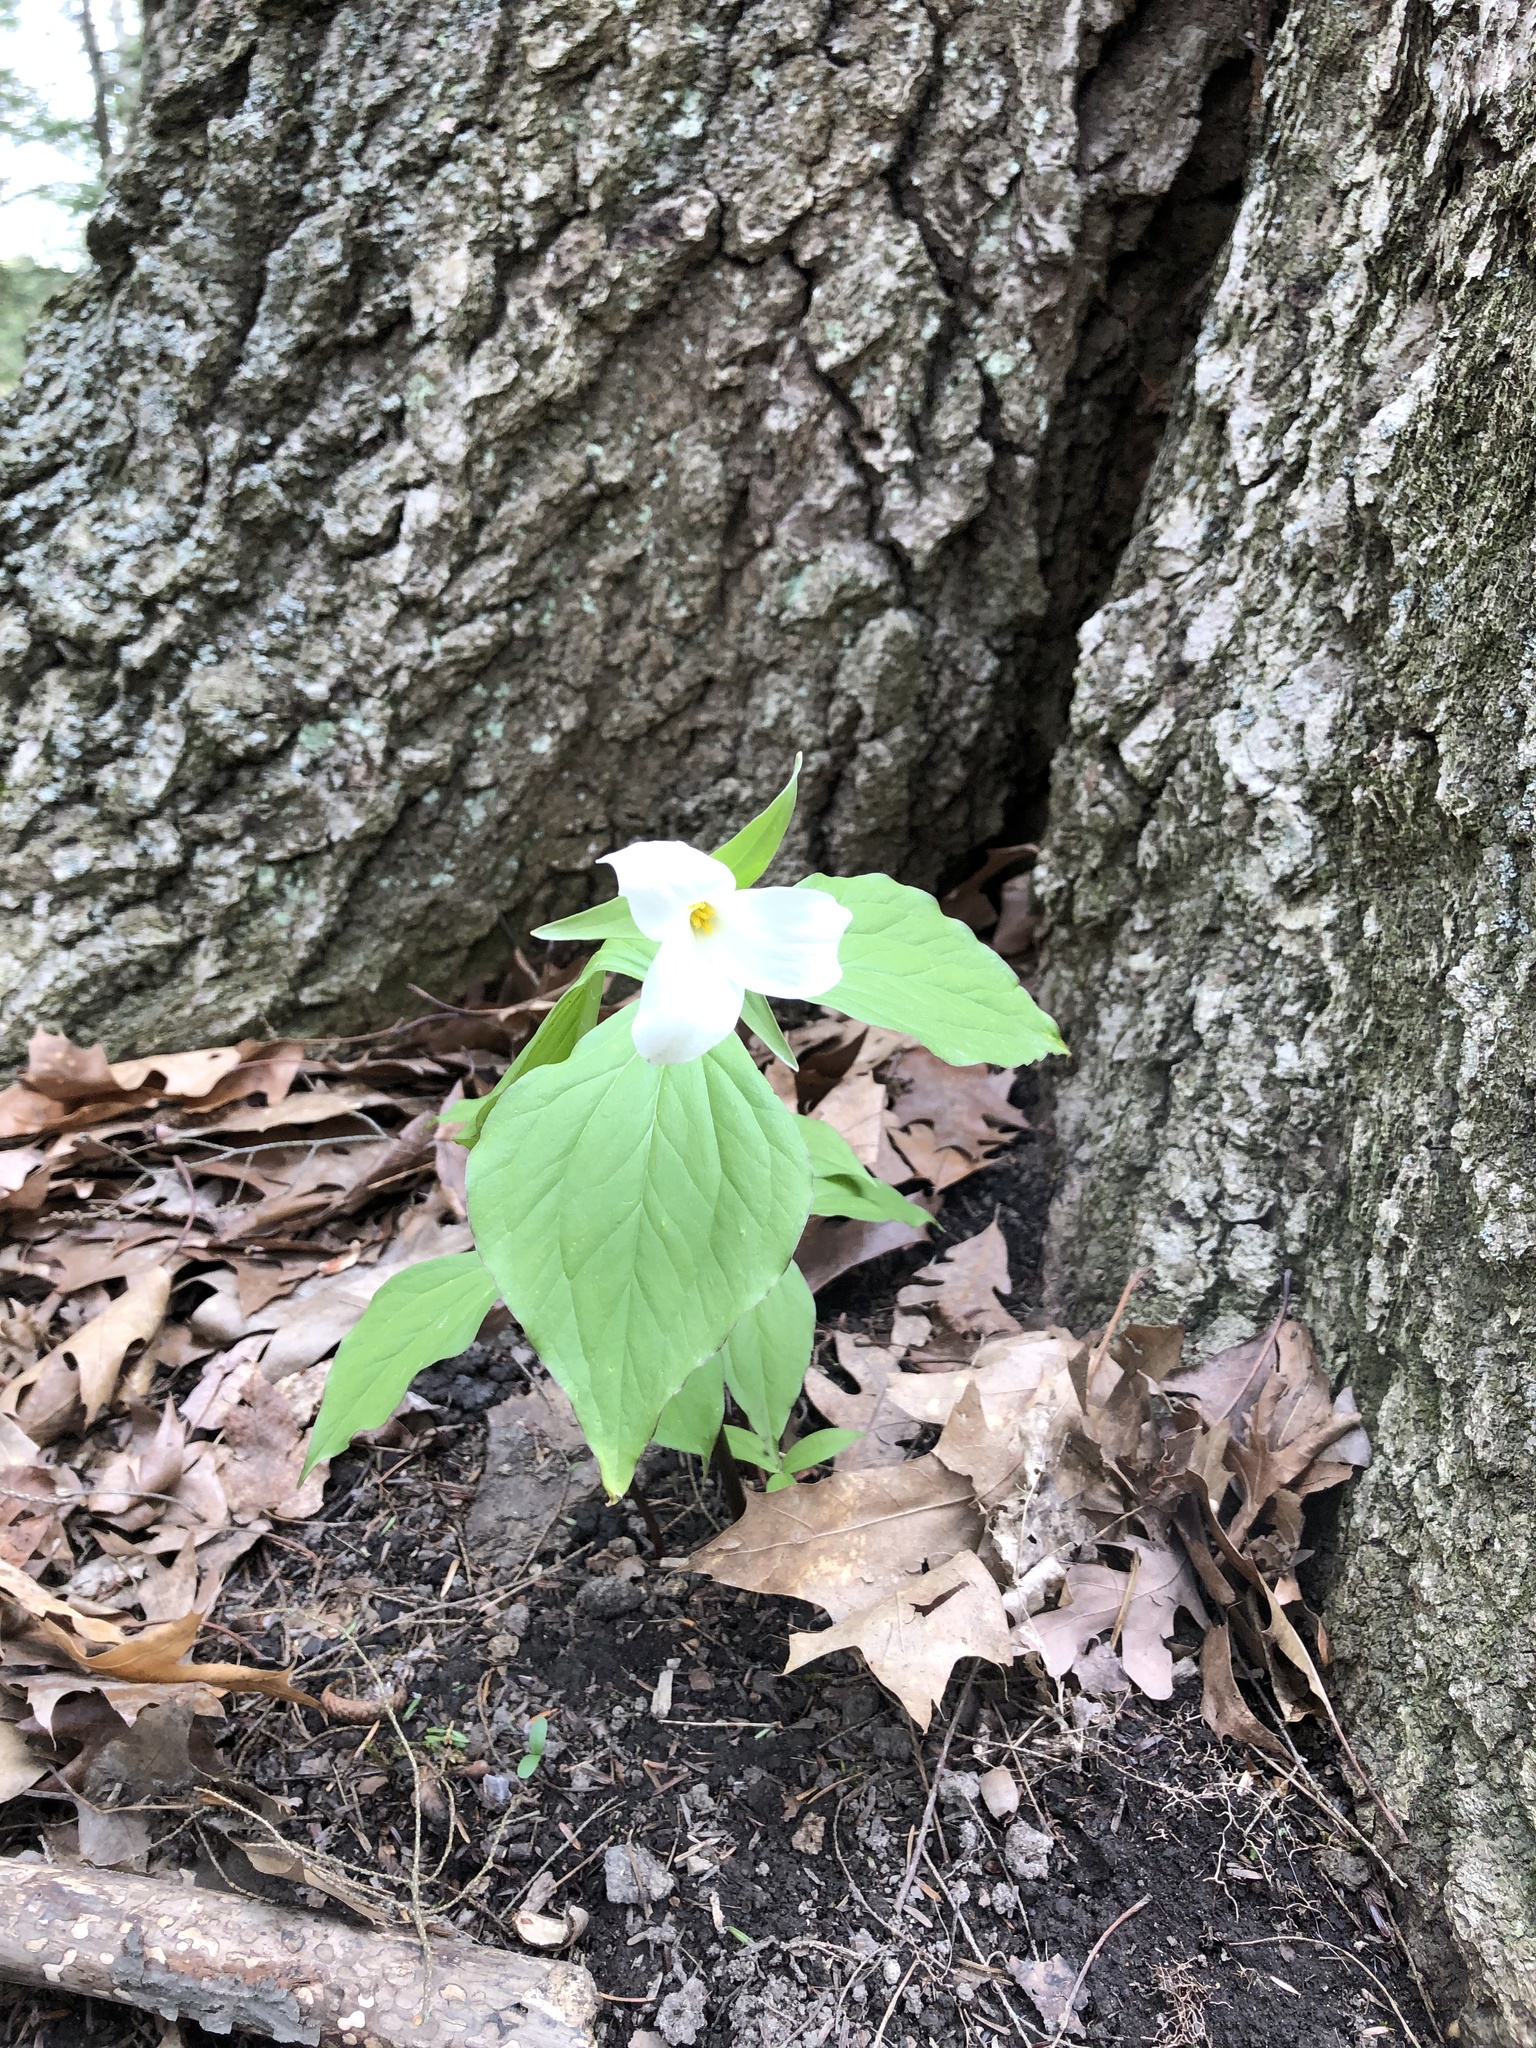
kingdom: Plantae
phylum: Tracheophyta
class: Liliopsida
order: Liliales
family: Melanthiaceae
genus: Trillium
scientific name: Trillium grandiflorum
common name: Great white trillium
